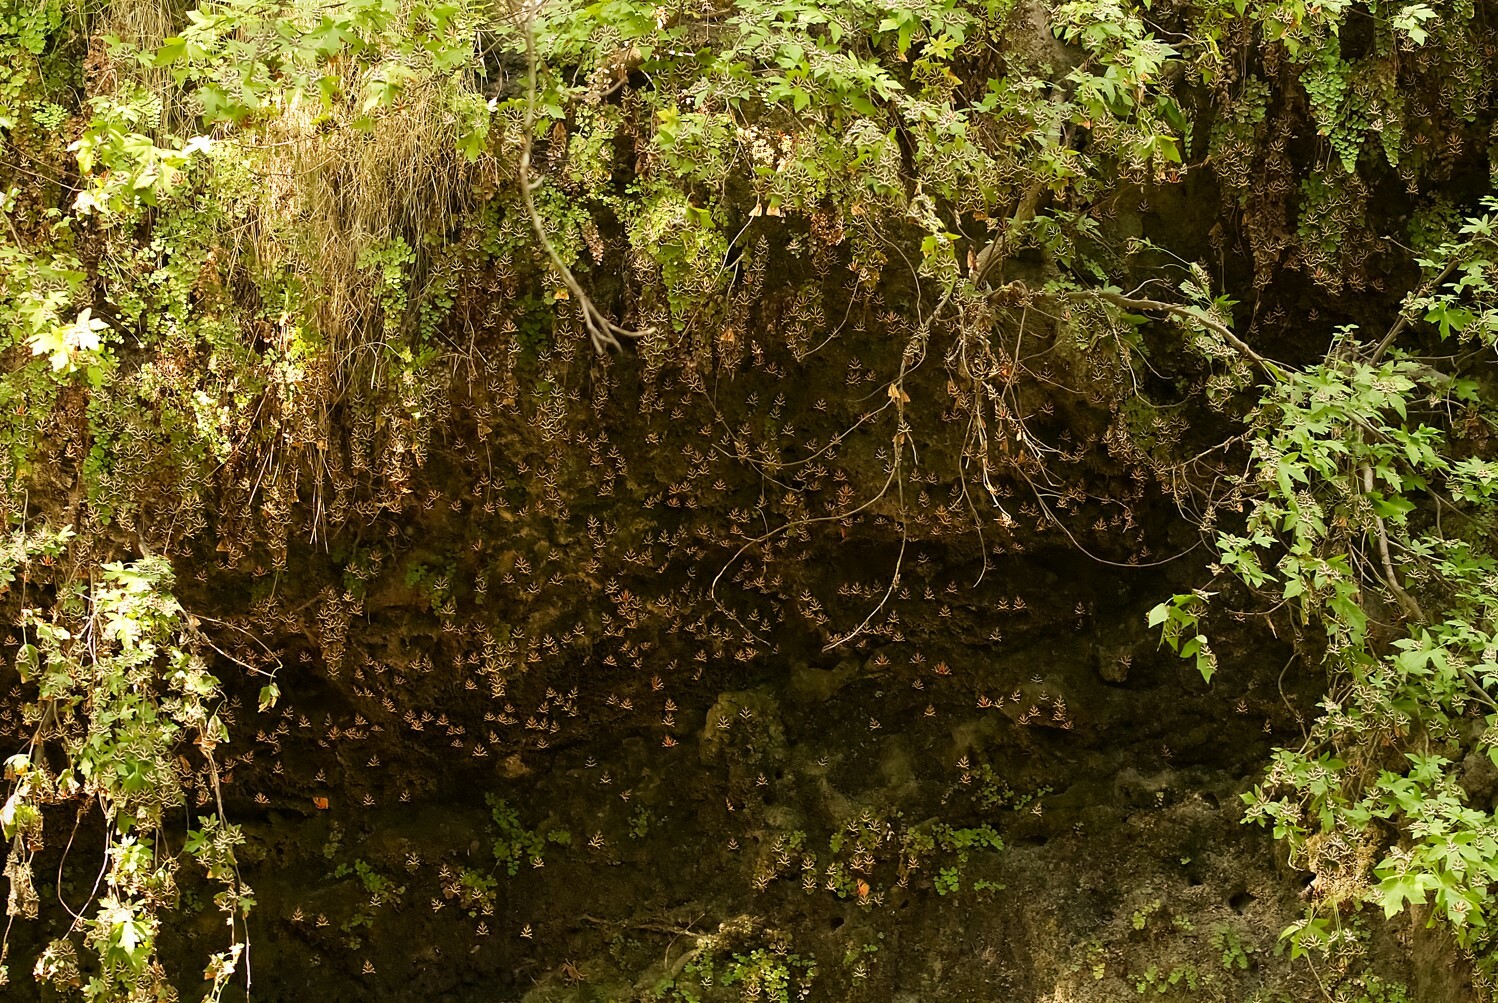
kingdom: Plantae
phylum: Tracheophyta
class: Polypodiopsida
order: Polypodiales
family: Pteridaceae
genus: Adiantum
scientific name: Adiantum capillus-veneris
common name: Maidenhair fern
